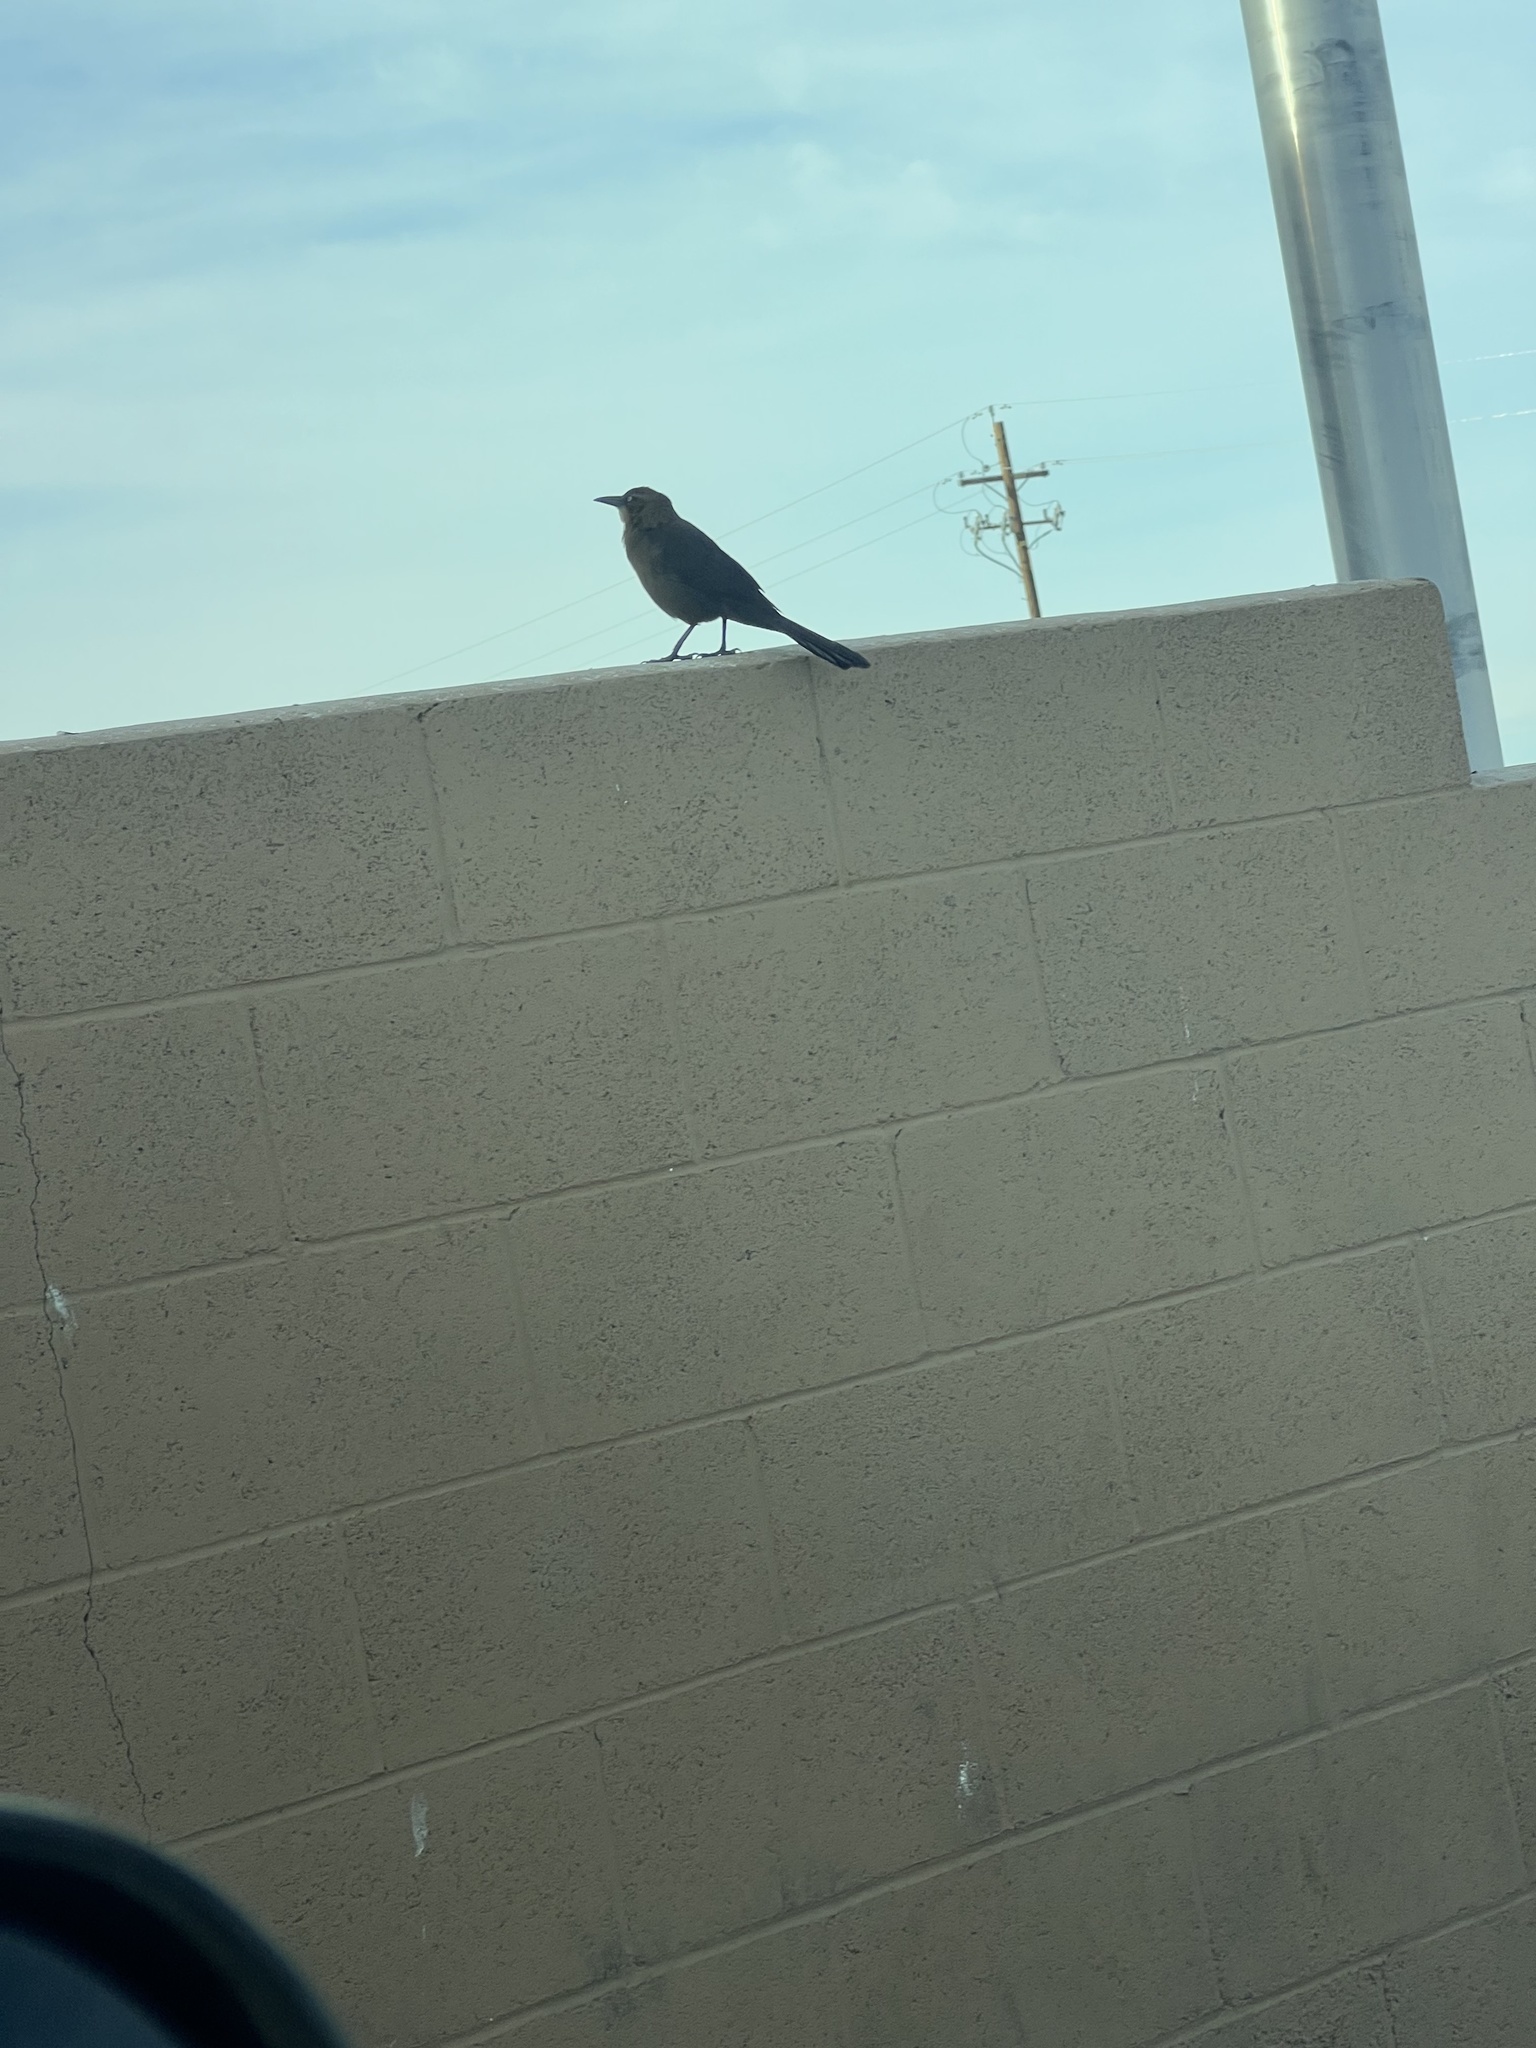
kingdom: Animalia
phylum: Chordata
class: Aves
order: Passeriformes
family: Icteridae
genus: Quiscalus
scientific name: Quiscalus mexicanus
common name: Great-tailed grackle
